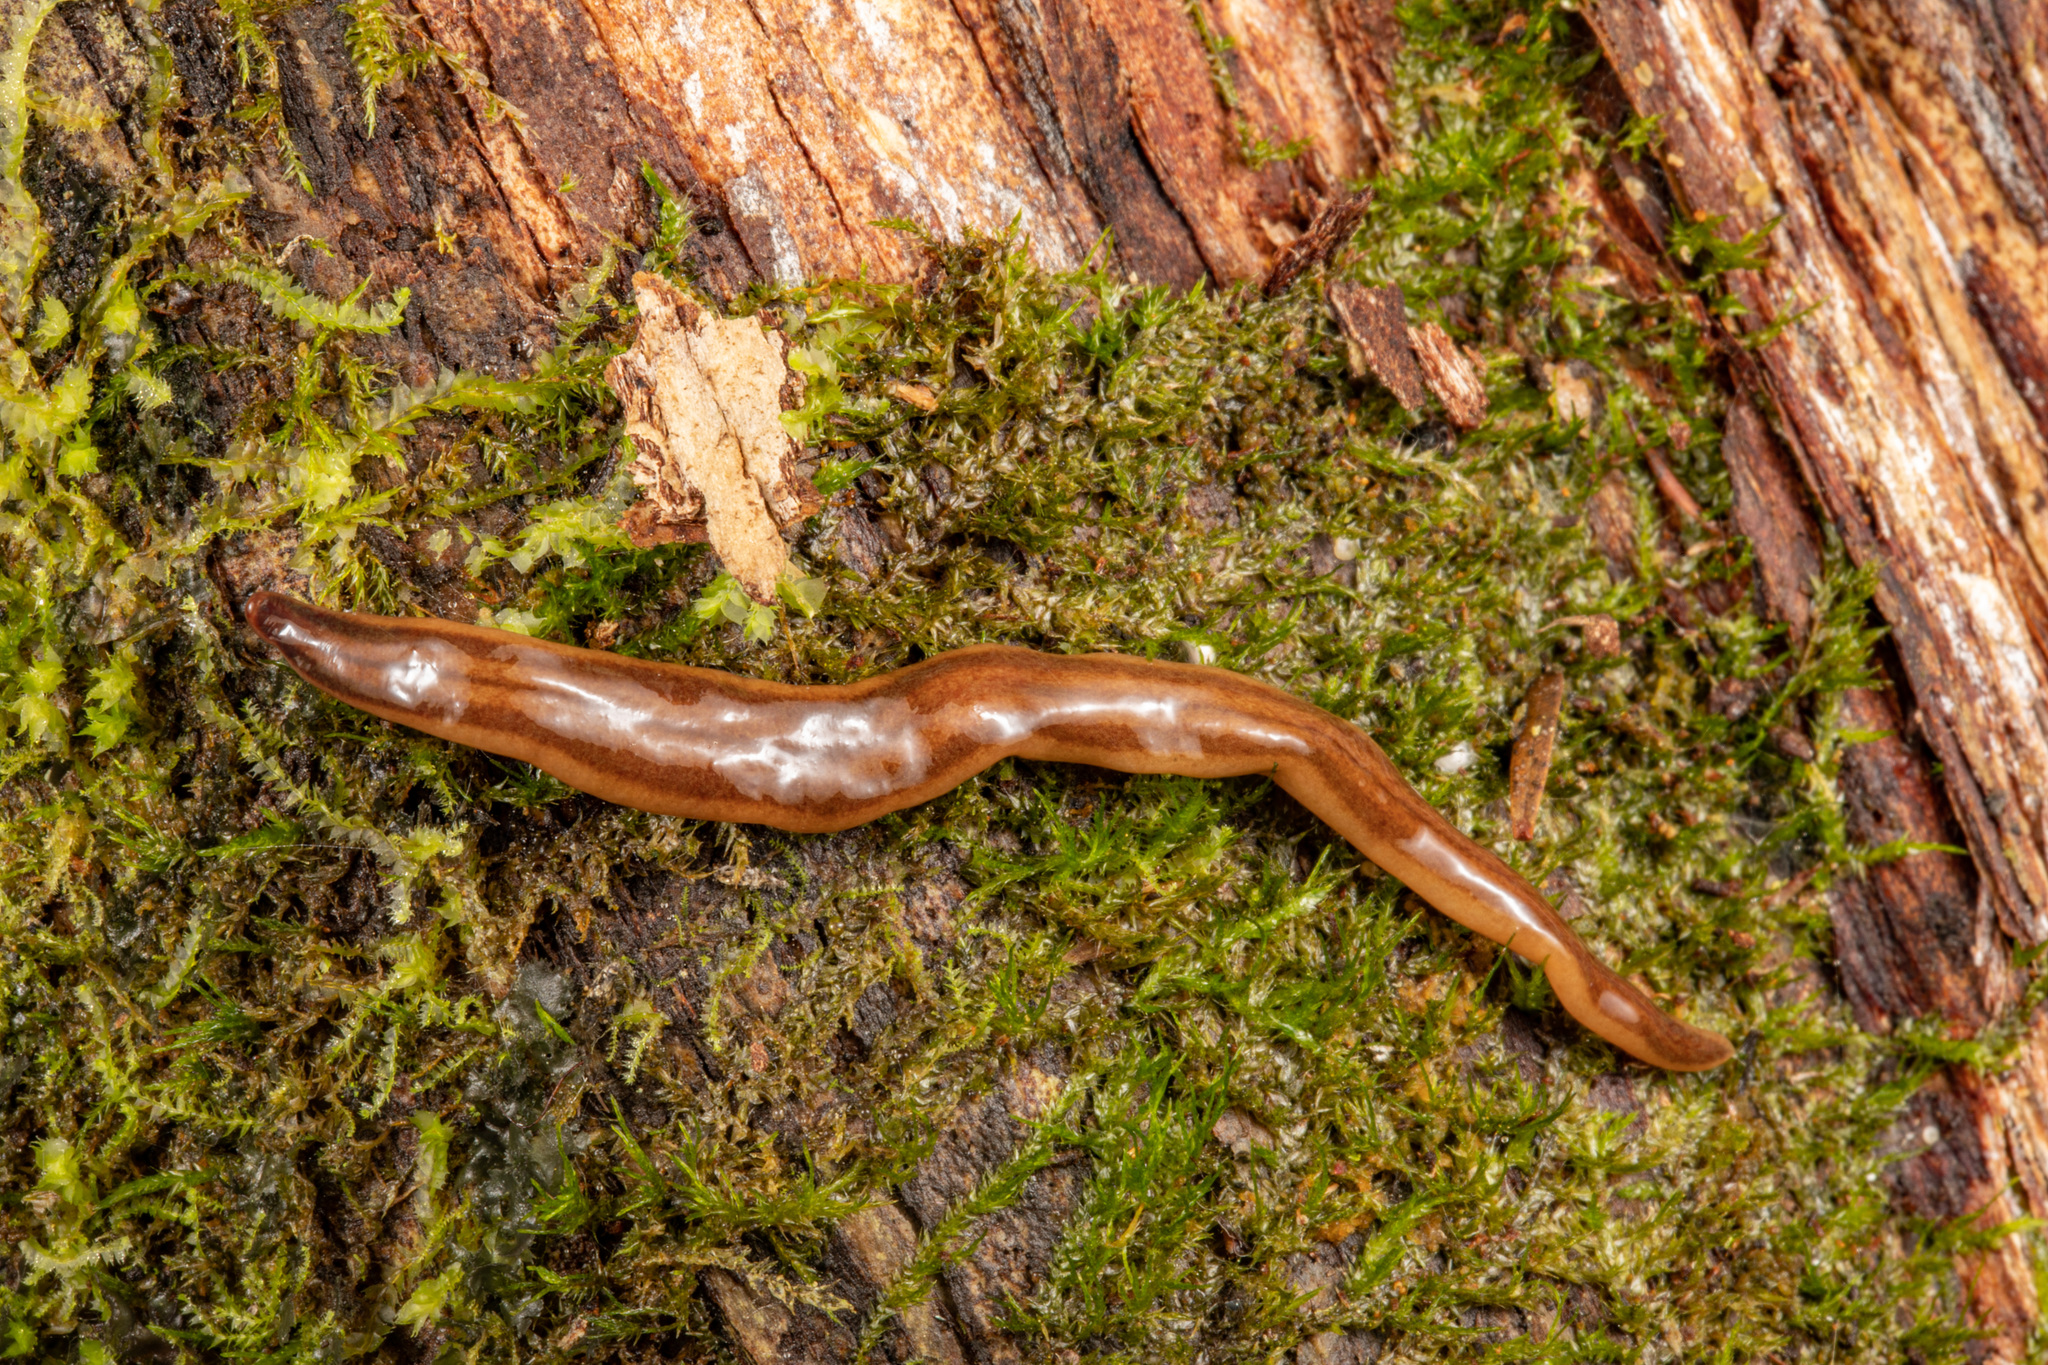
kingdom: Animalia
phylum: Platyhelminthes
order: Tricladida
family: Geoplanidae
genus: Anzoplana
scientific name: Anzoplana trilineata
